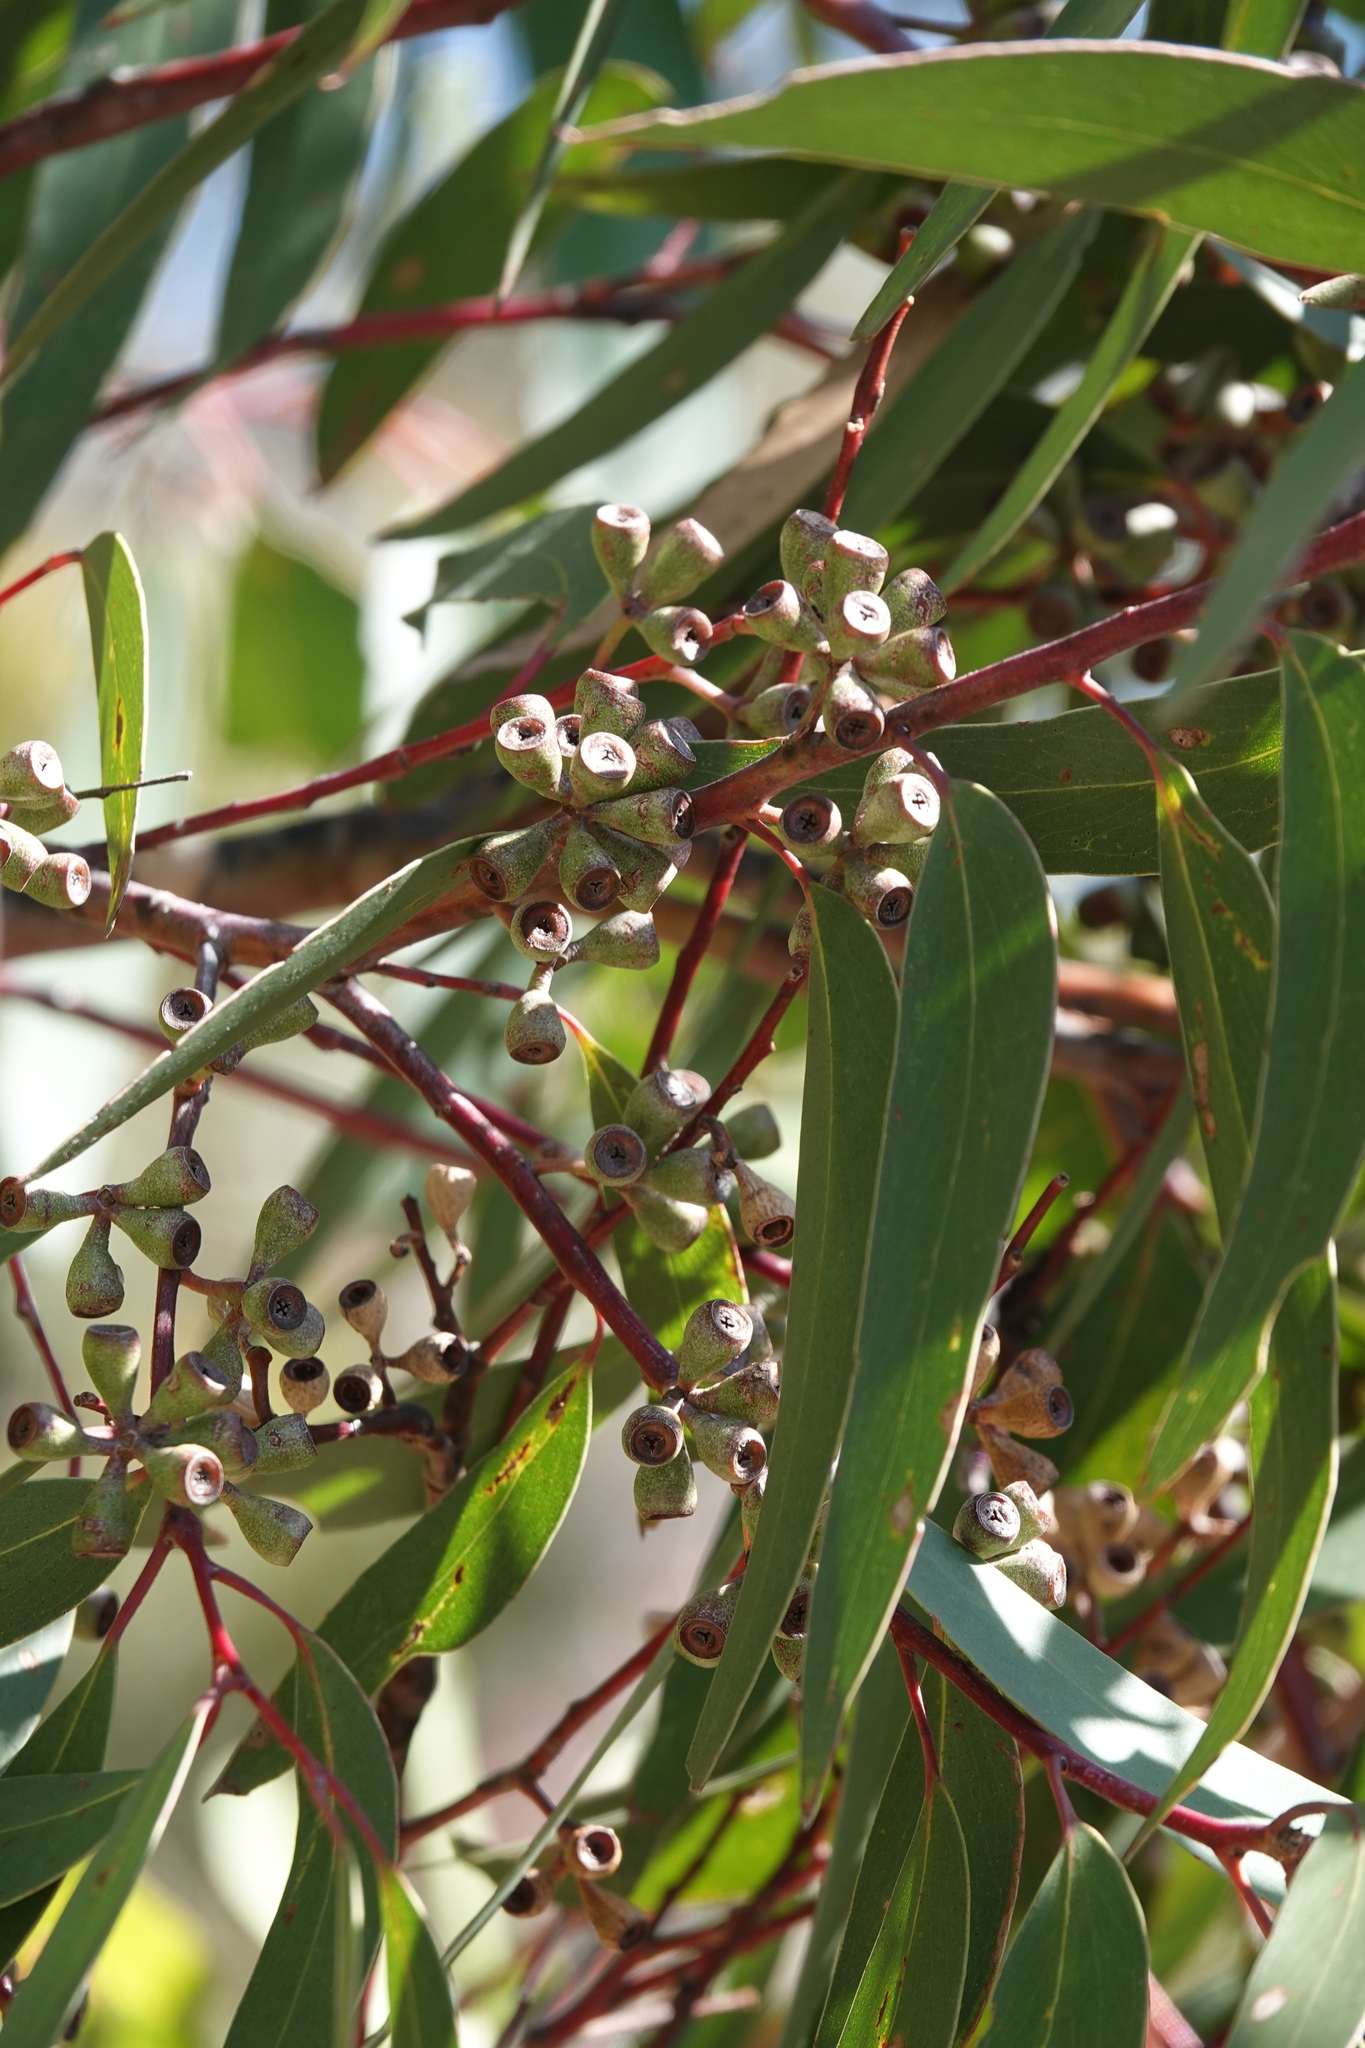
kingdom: Plantae
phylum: Tracheophyta
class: Magnoliopsida
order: Myrtales
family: Myrtaceae
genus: Eucalyptus
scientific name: Eucalyptus sieberi
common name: Black-ash
